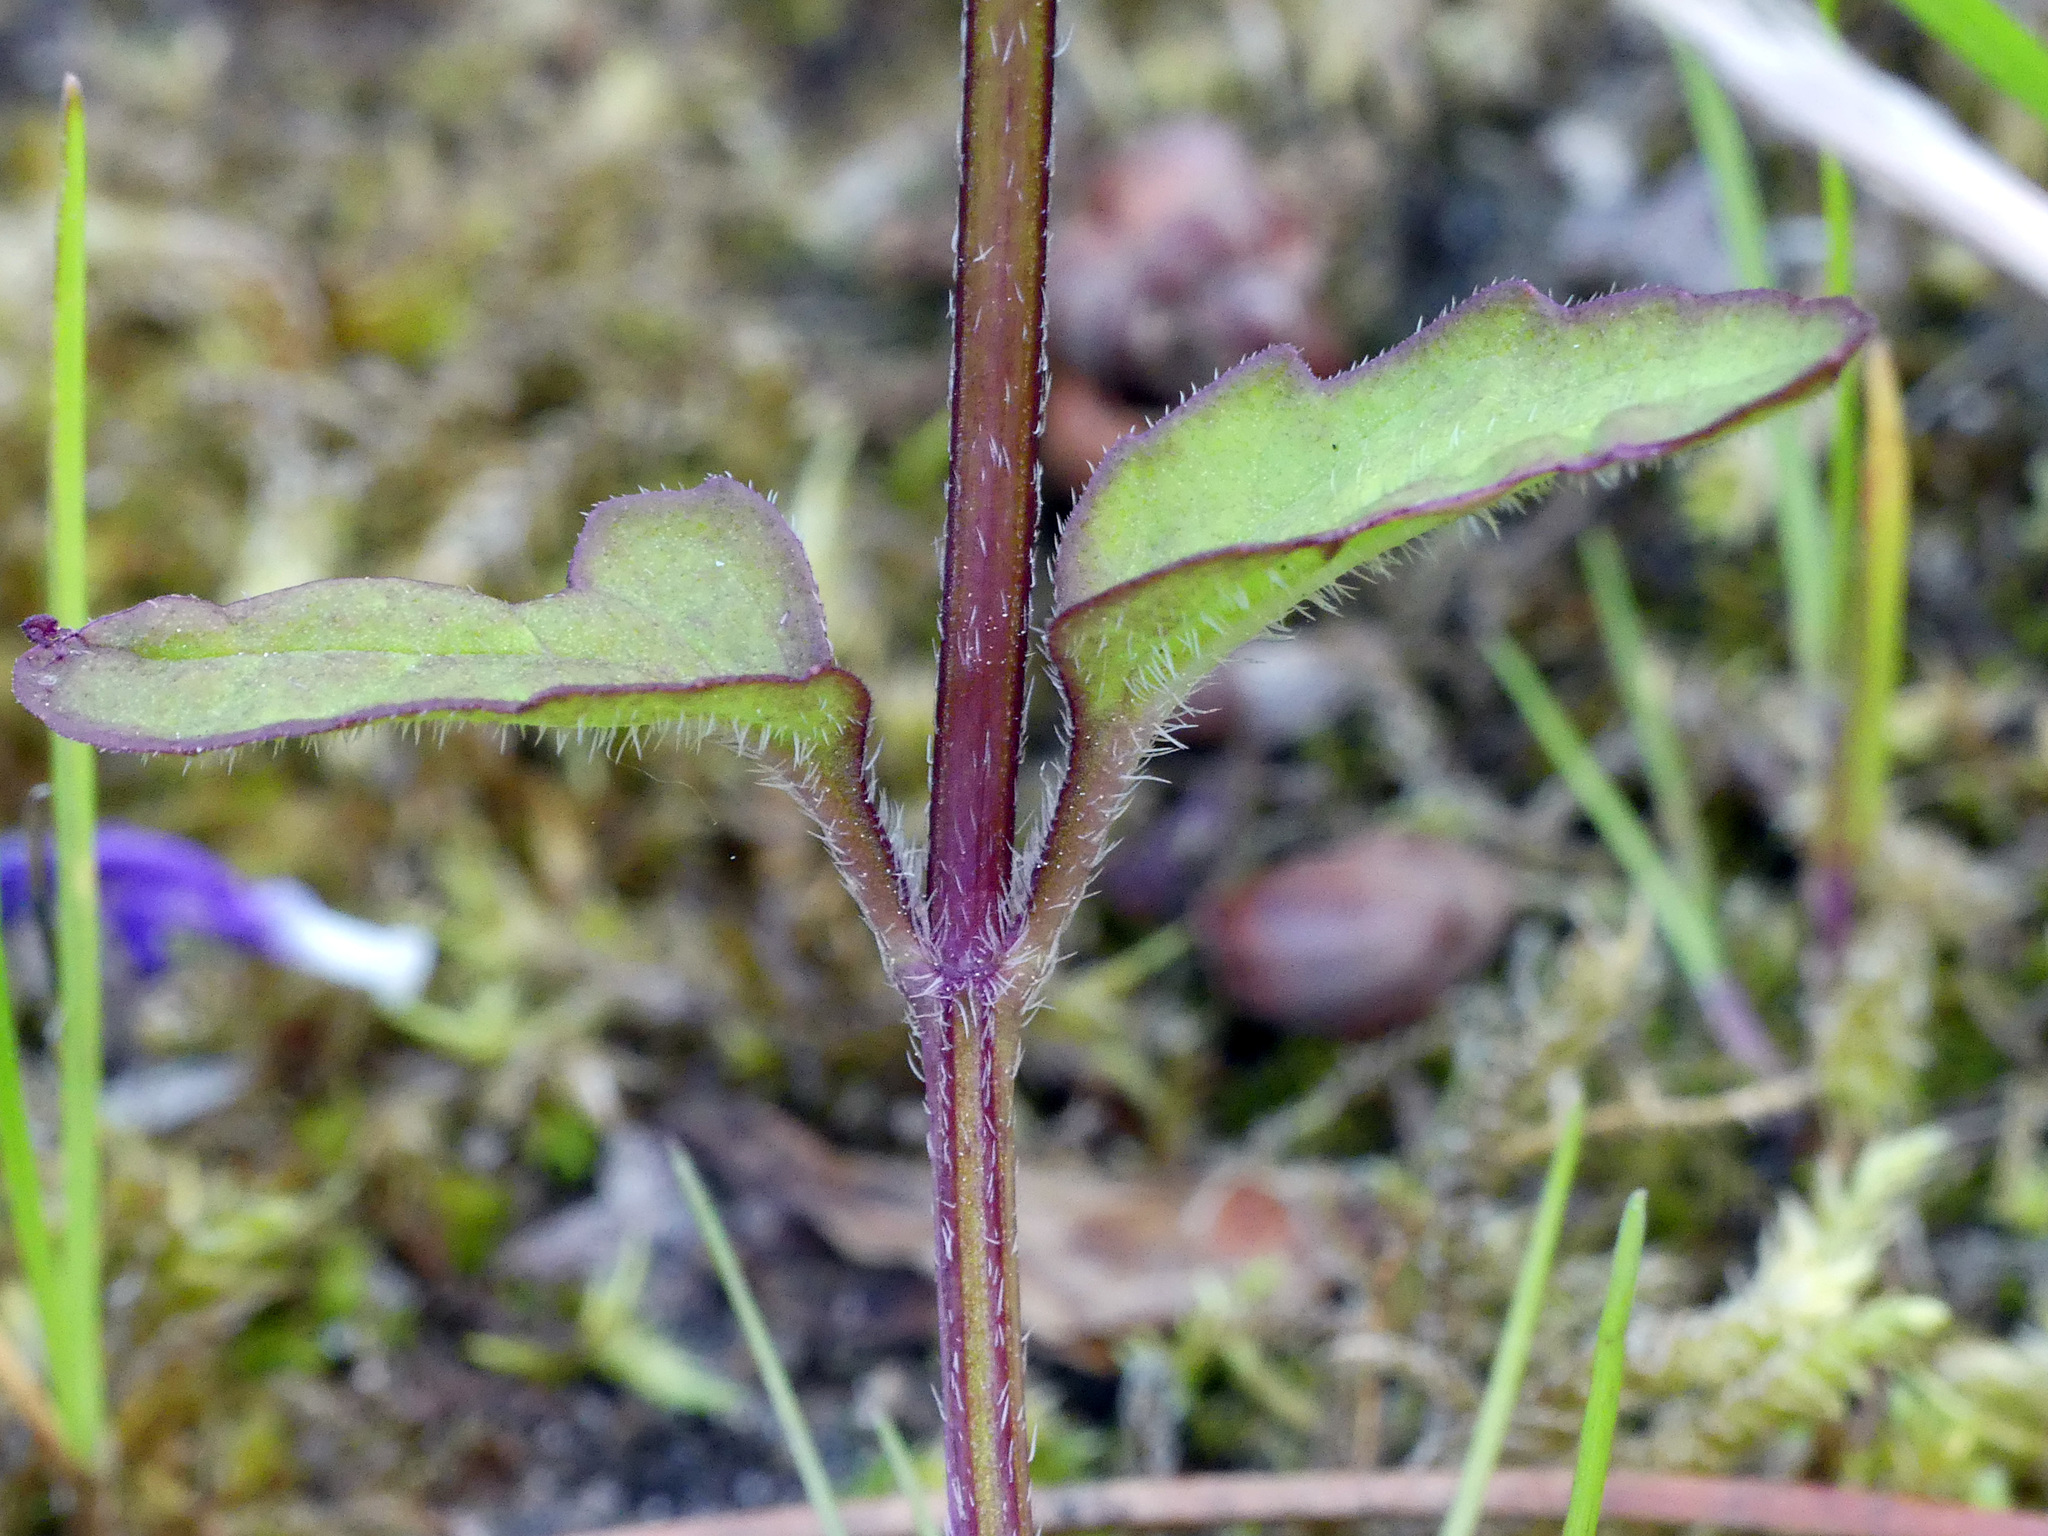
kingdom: Plantae
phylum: Tracheophyta
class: Magnoliopsida
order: Lamiales
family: Lamiaceae
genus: Prunella
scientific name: Prunella vulgaris
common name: Heal-all
